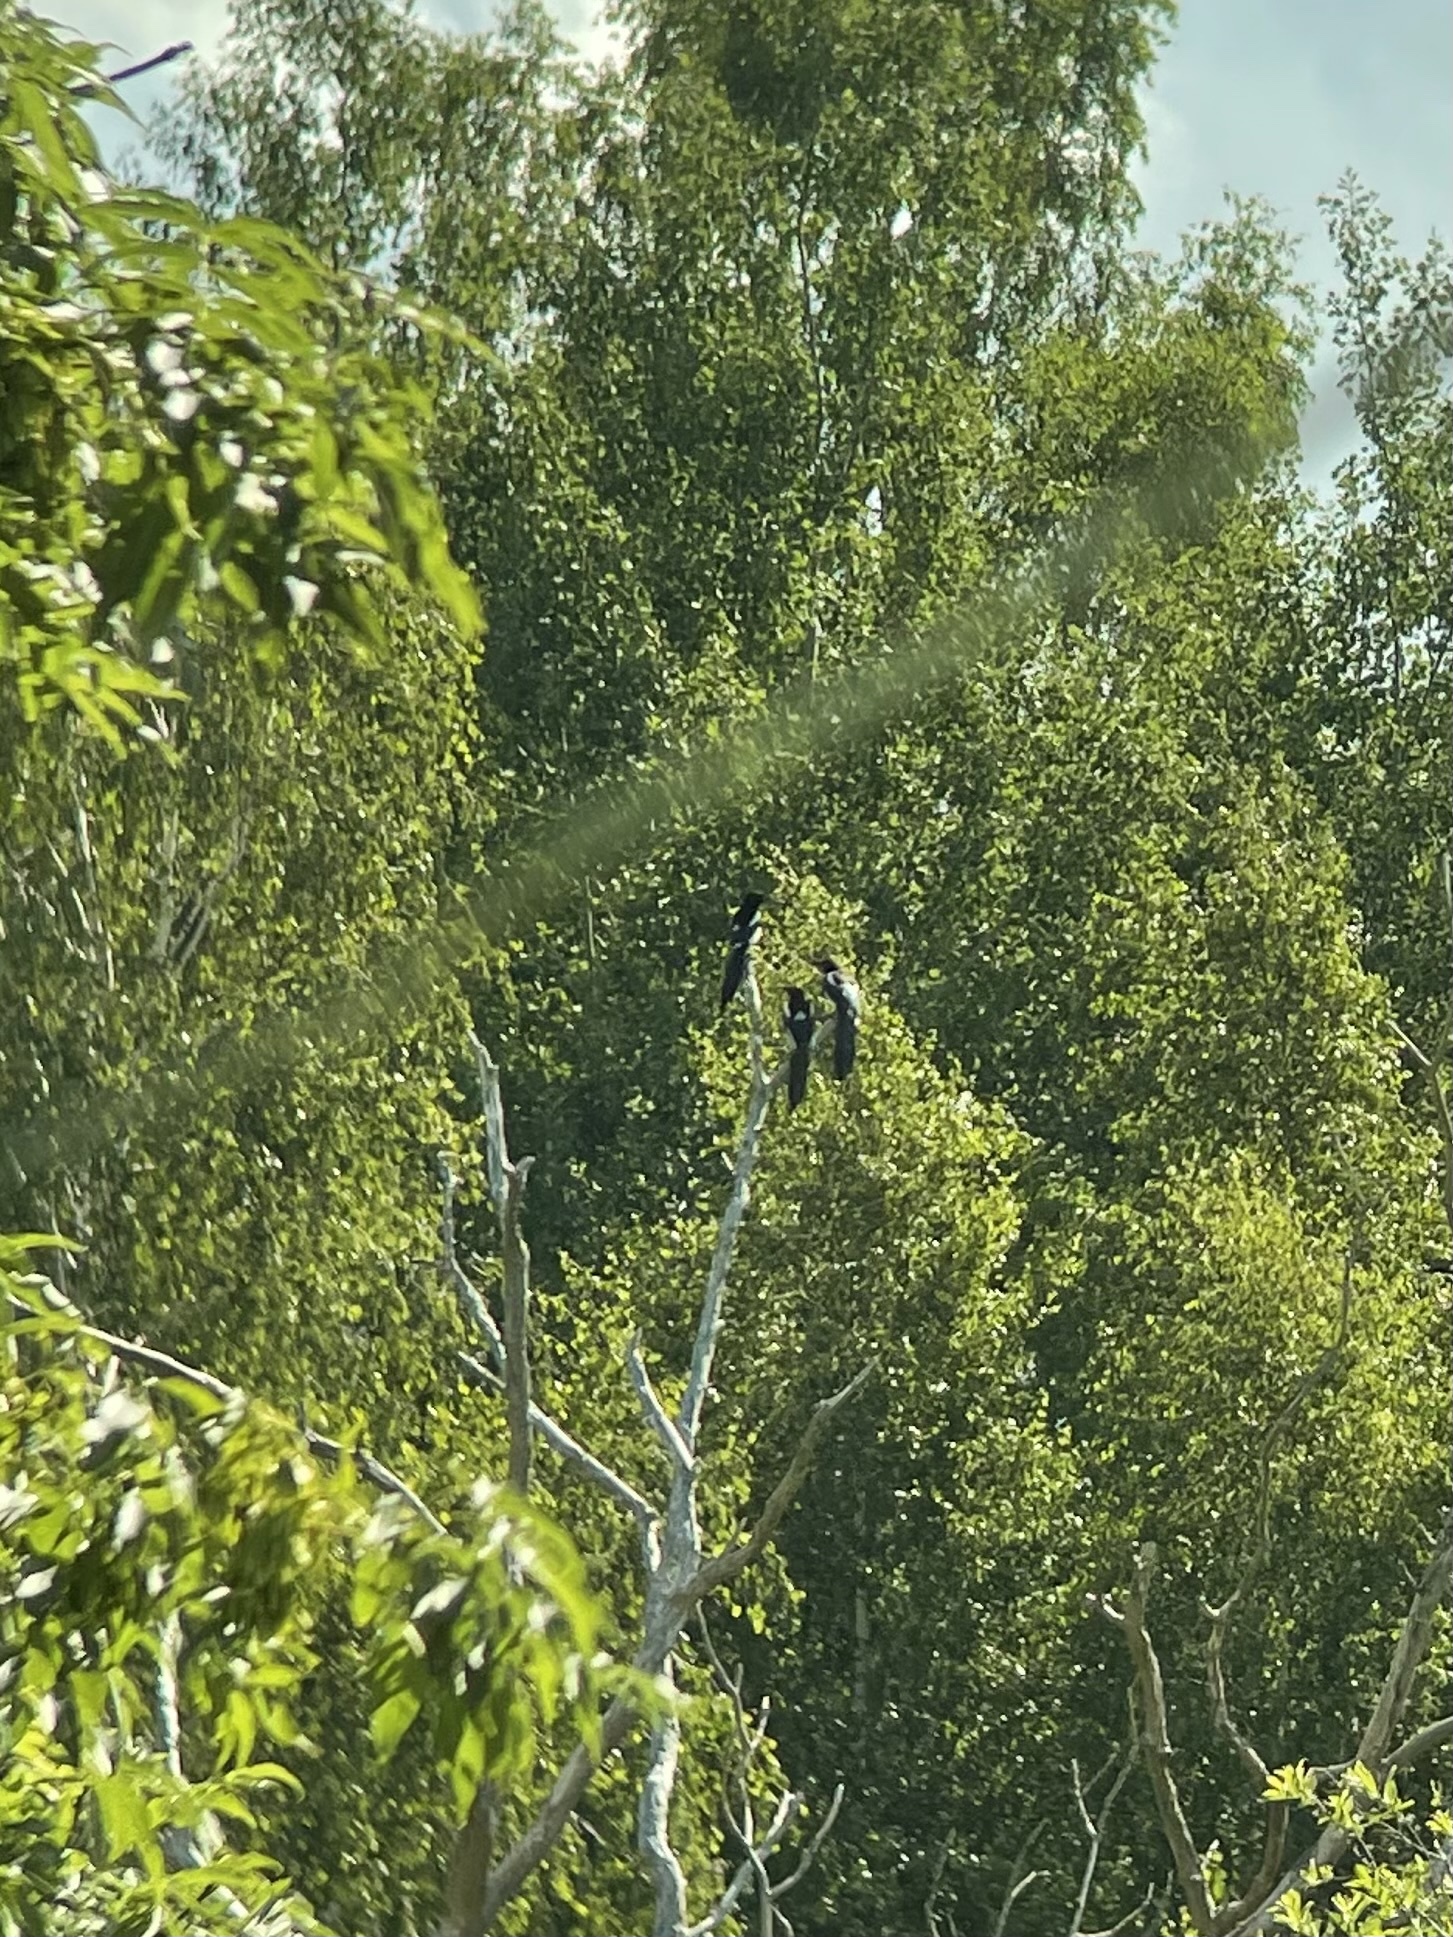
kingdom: Animalia
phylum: Chordata
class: Aves
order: Passeriformes
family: Corvidae
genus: Pica
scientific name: Pica pica
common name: Eurasian magpie
